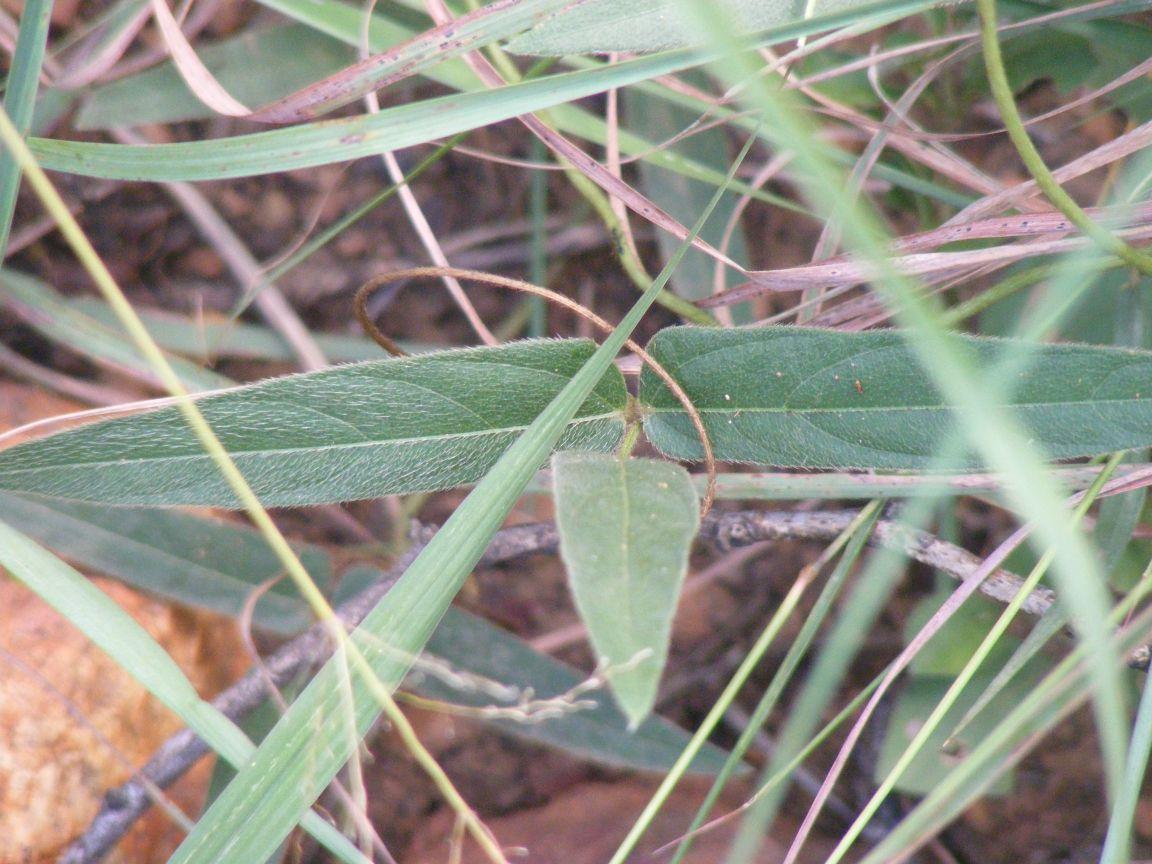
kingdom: Plantae
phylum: Tracheophyta
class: Magnoliopsida
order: Fabales
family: Fabaceae
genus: Vigna
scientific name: Vigna vexillata
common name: Zombi pea
